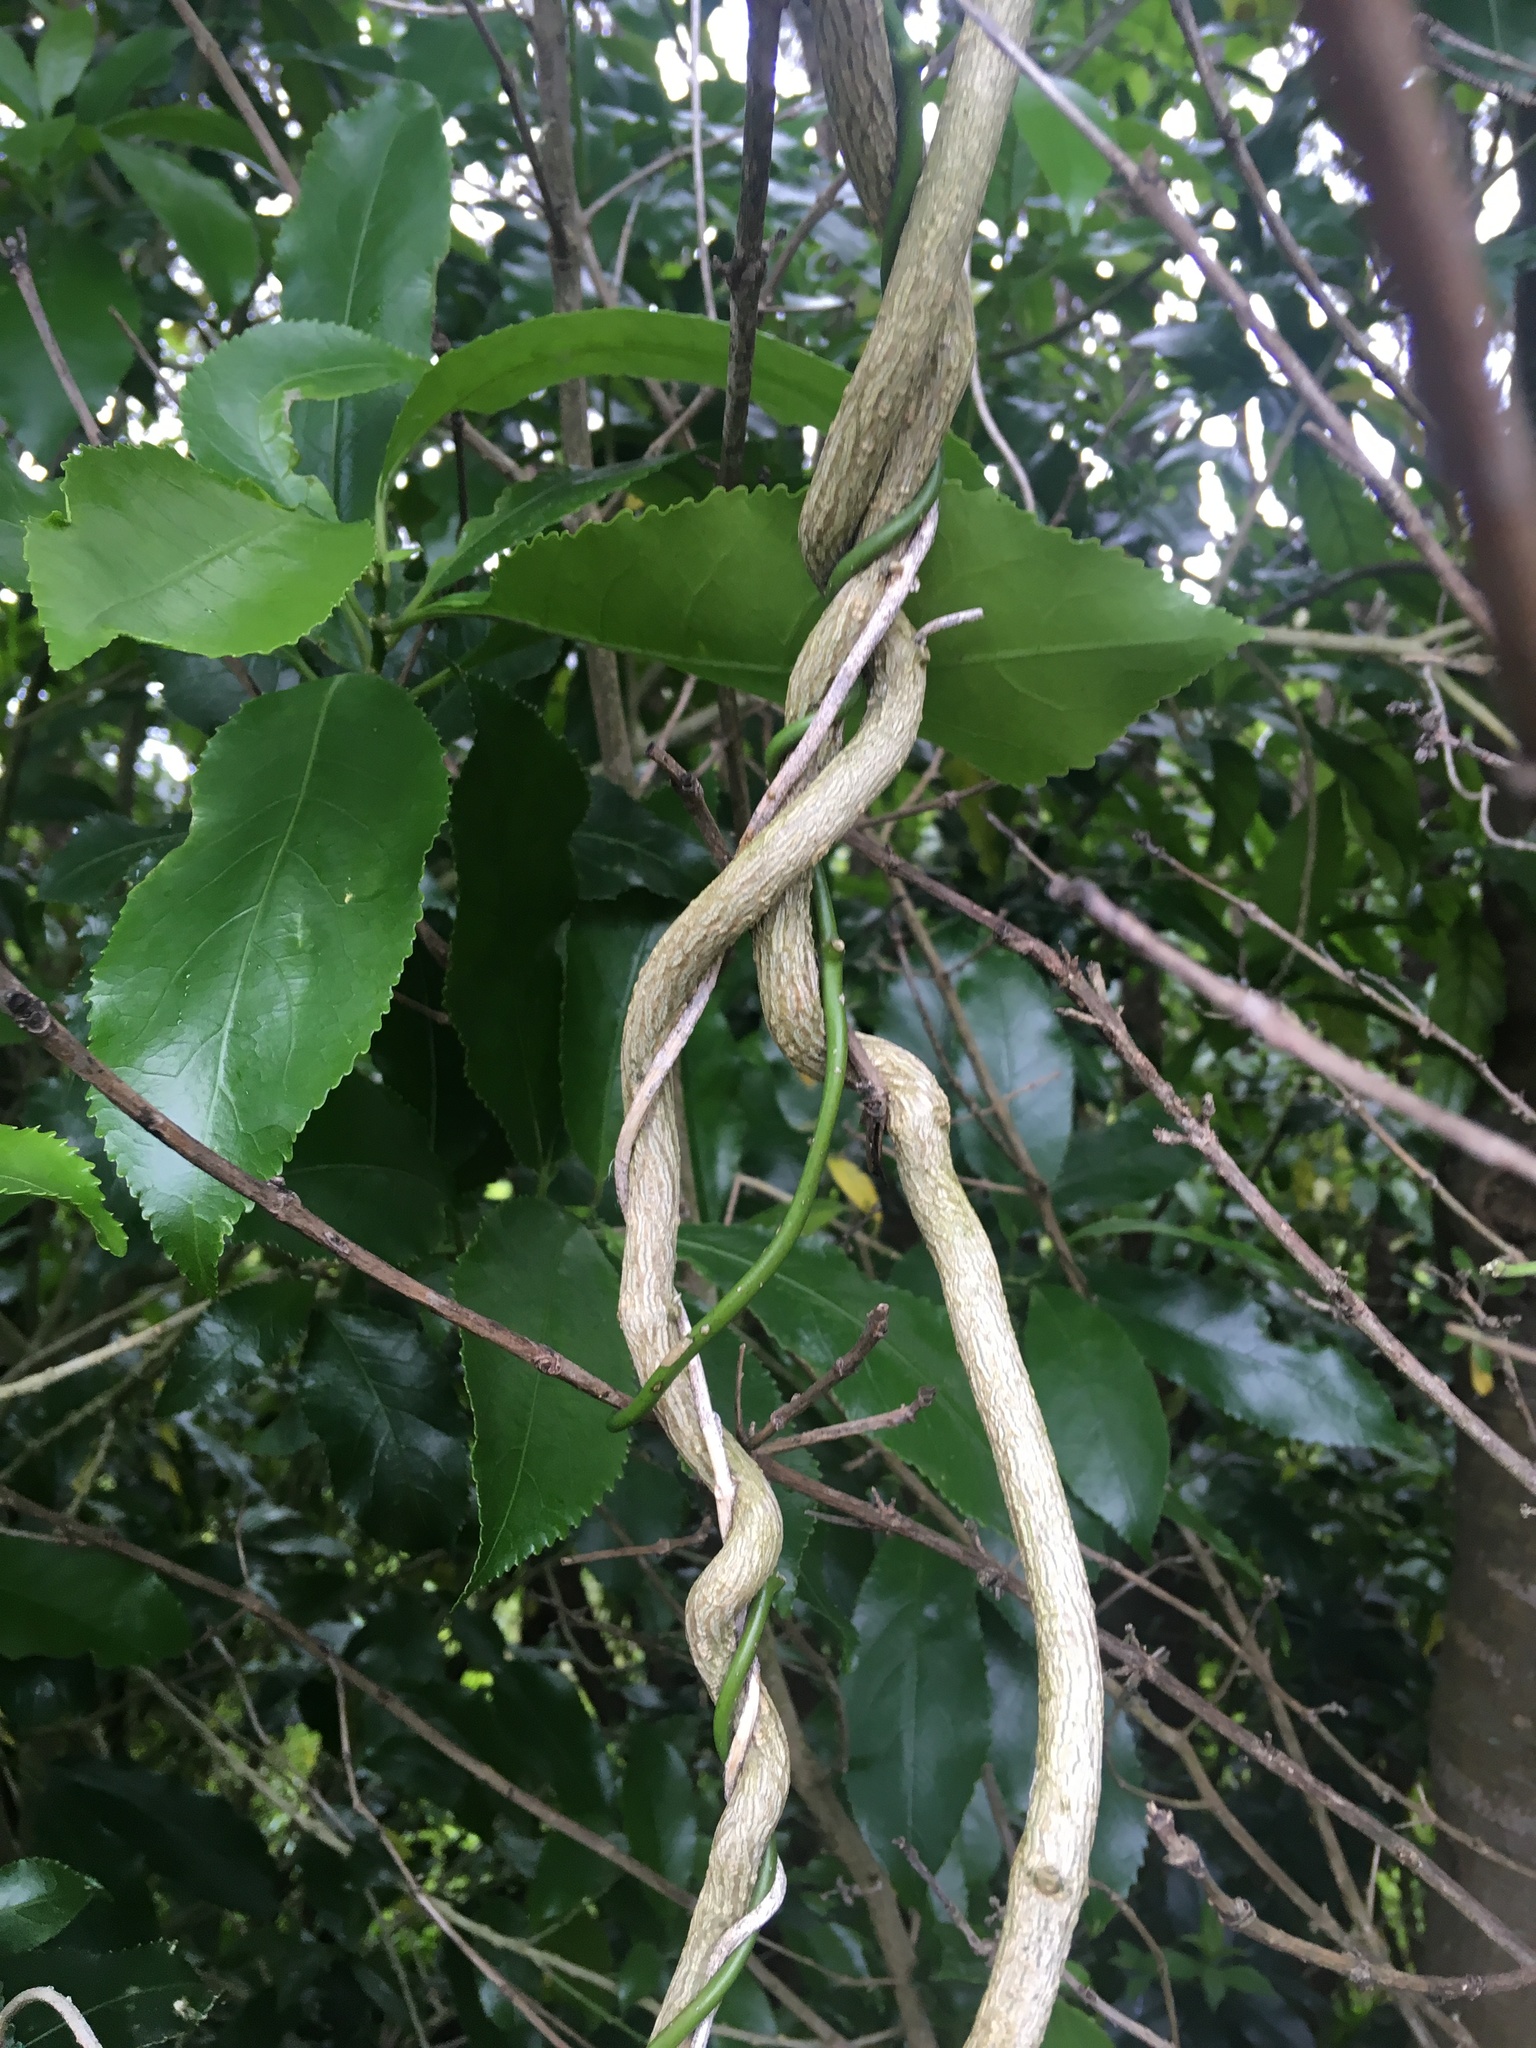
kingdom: Plantae
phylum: Tracheophyta
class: Magnoliopsida
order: Gentianales
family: Apocynaceae
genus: Araujia
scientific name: Araujia sericifera
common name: White bladderflower
